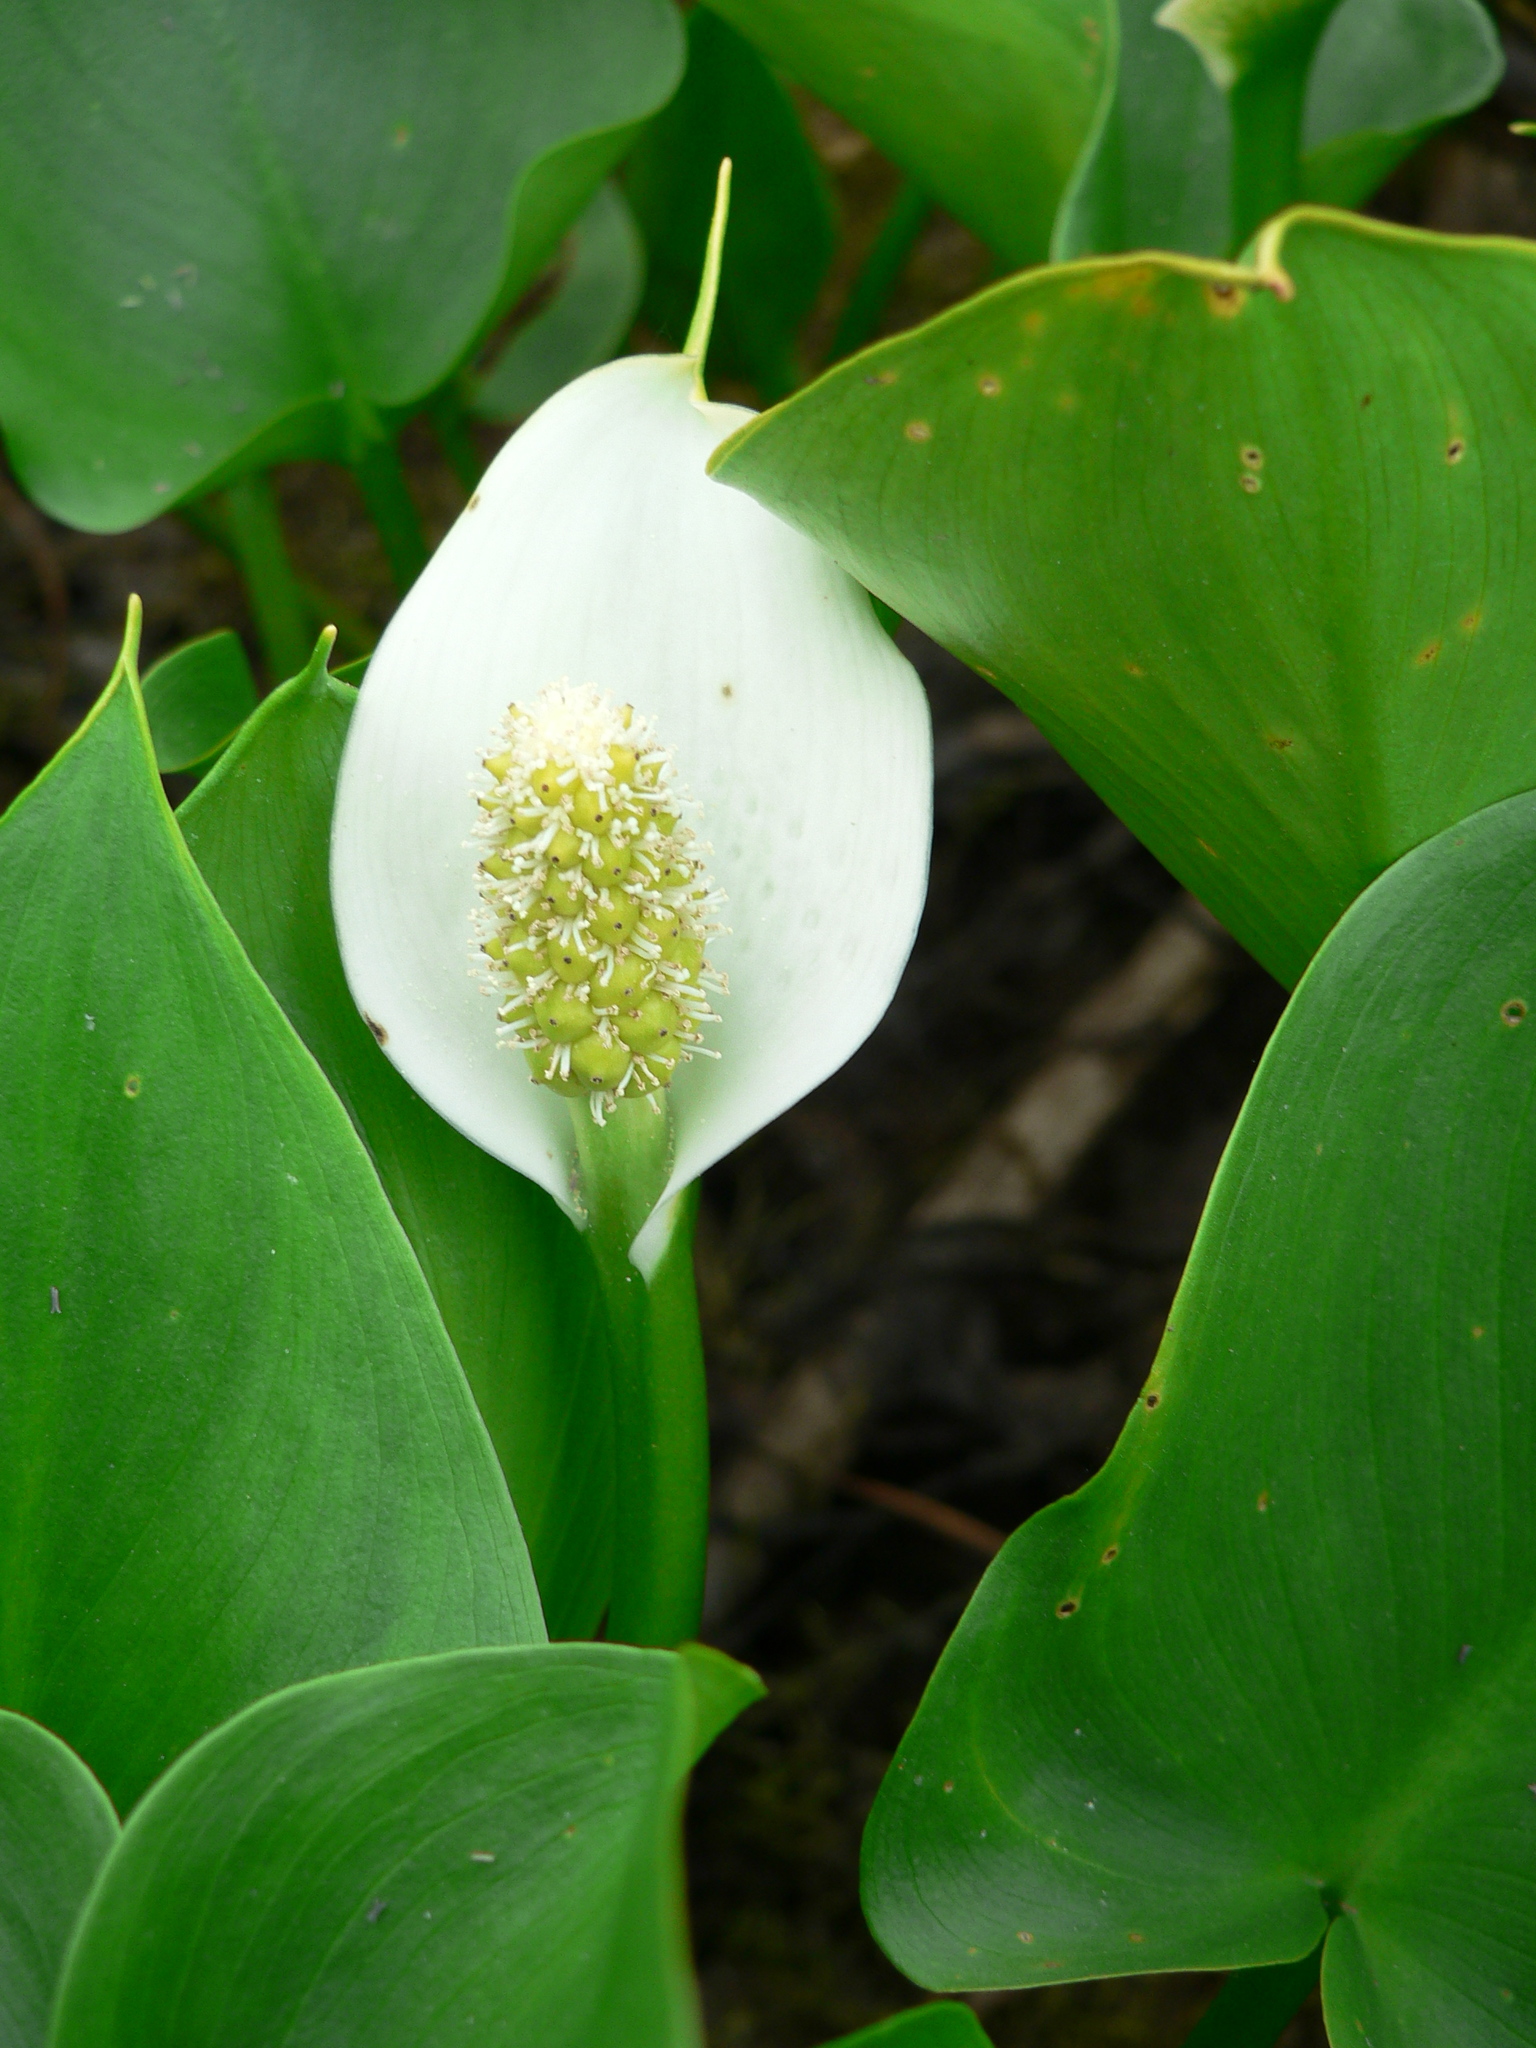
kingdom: Plantae
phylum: Tracheophyta
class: Liliopsida
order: Alismatales
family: Araceae
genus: Calla
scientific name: Calla palustris
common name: Bog arum
